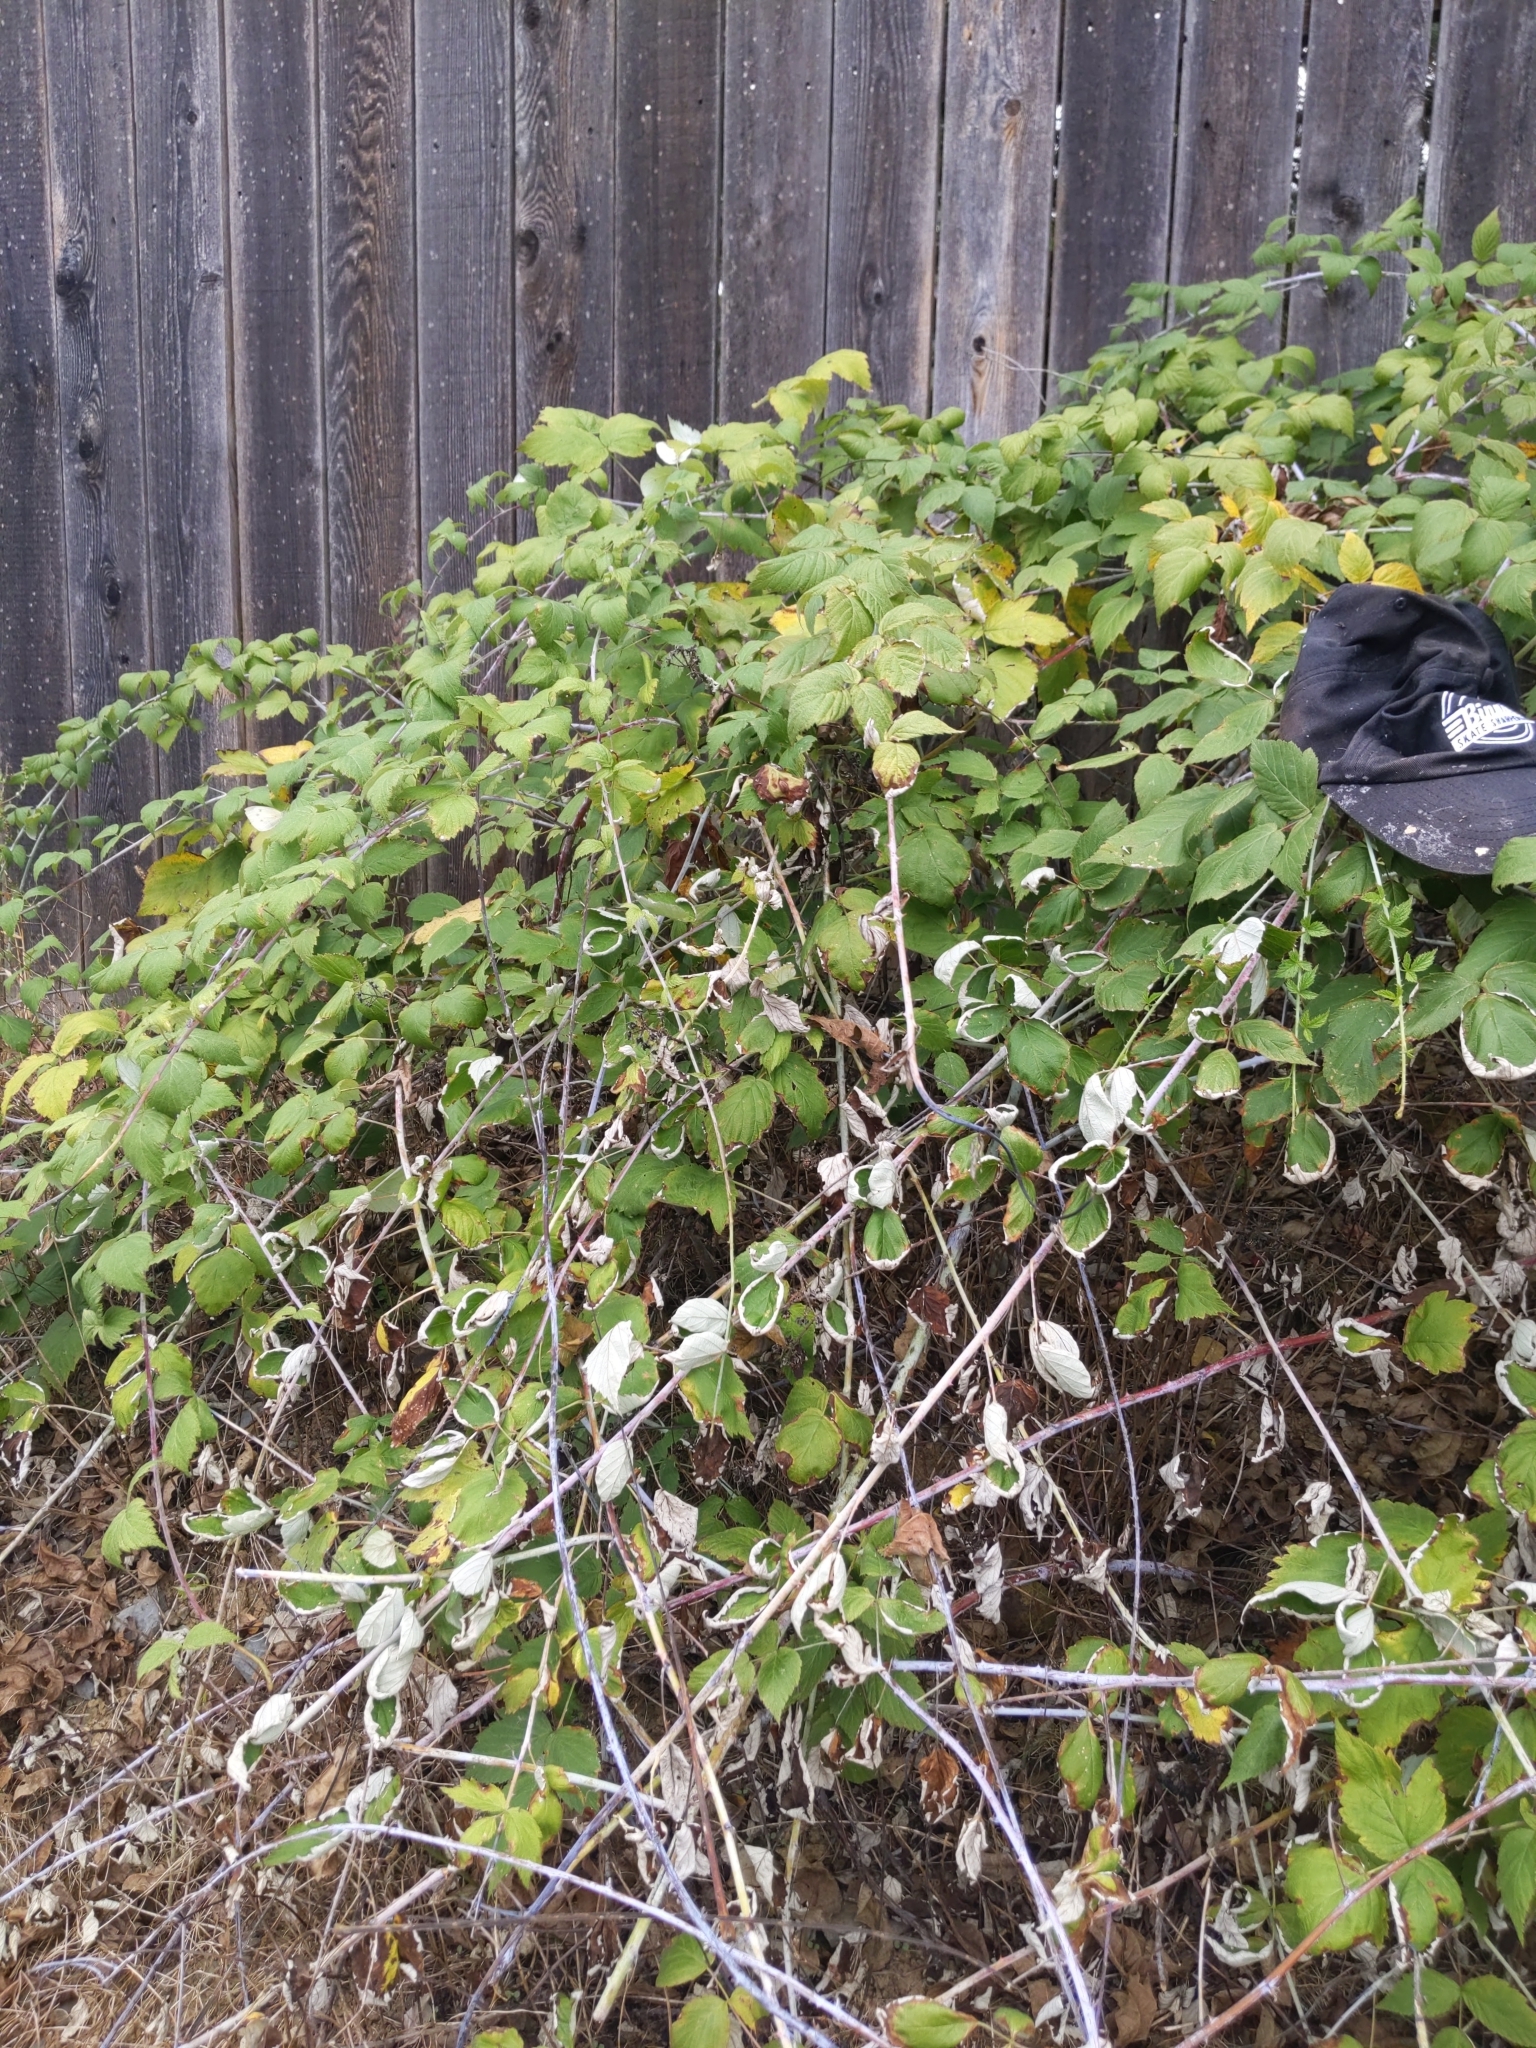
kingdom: Plantae
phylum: Tracheophyta
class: Magnoliopsida
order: Rosales
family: Rosaceae
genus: Rubus
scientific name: Rubus occidentalis
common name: Black raspberry
